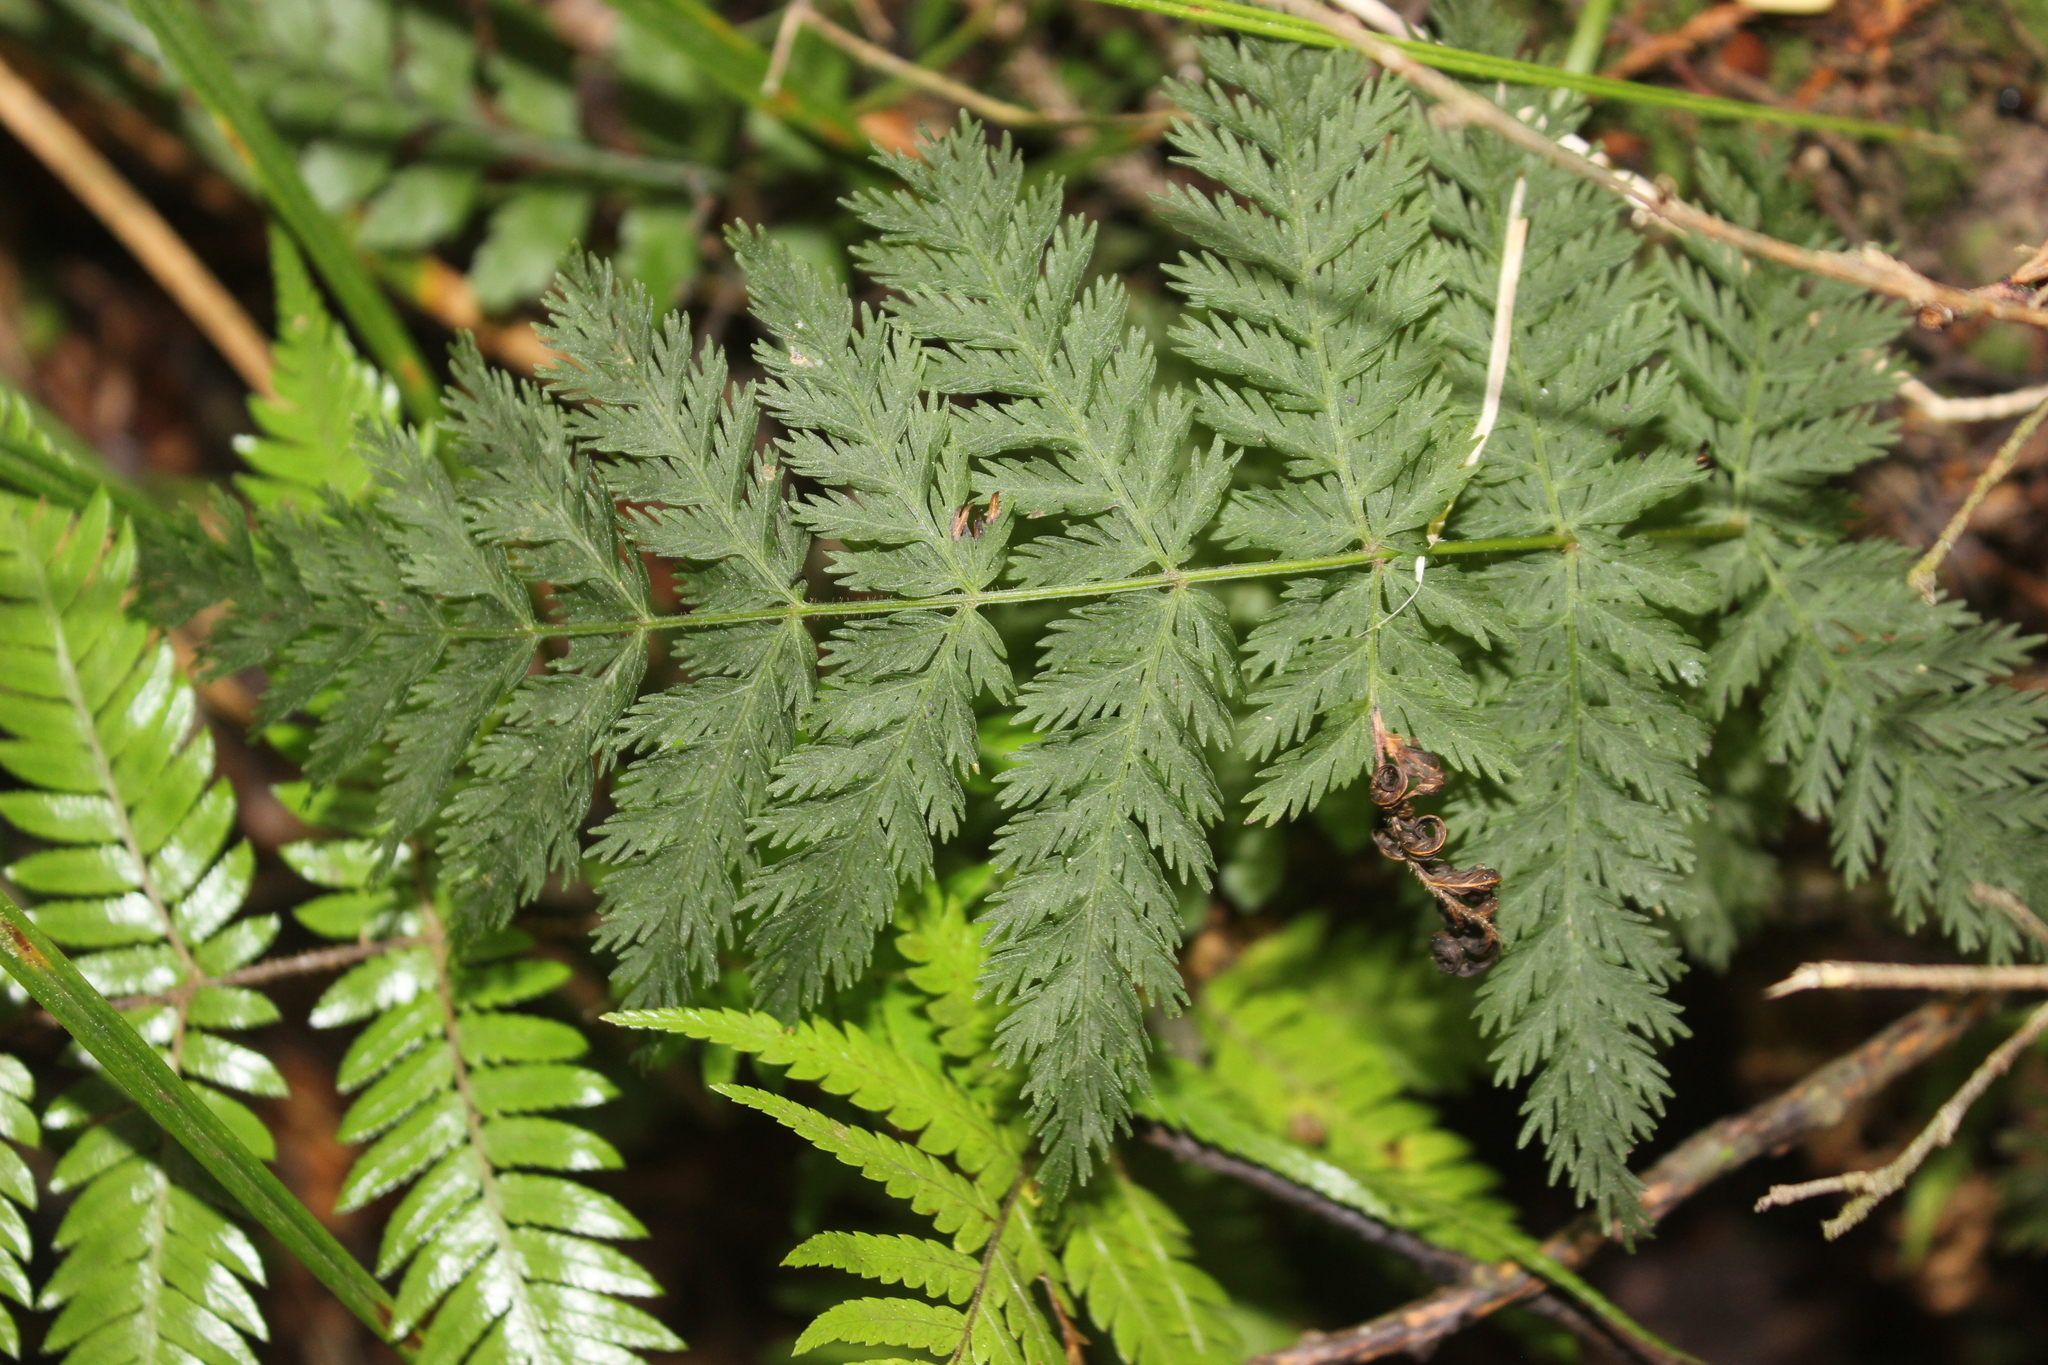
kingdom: Plantae
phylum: Tracheophyta
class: Polypodiopsida
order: Osmundales
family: Osmundaceae
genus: Leptopteris
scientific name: Leptopteris hymenophylloides
